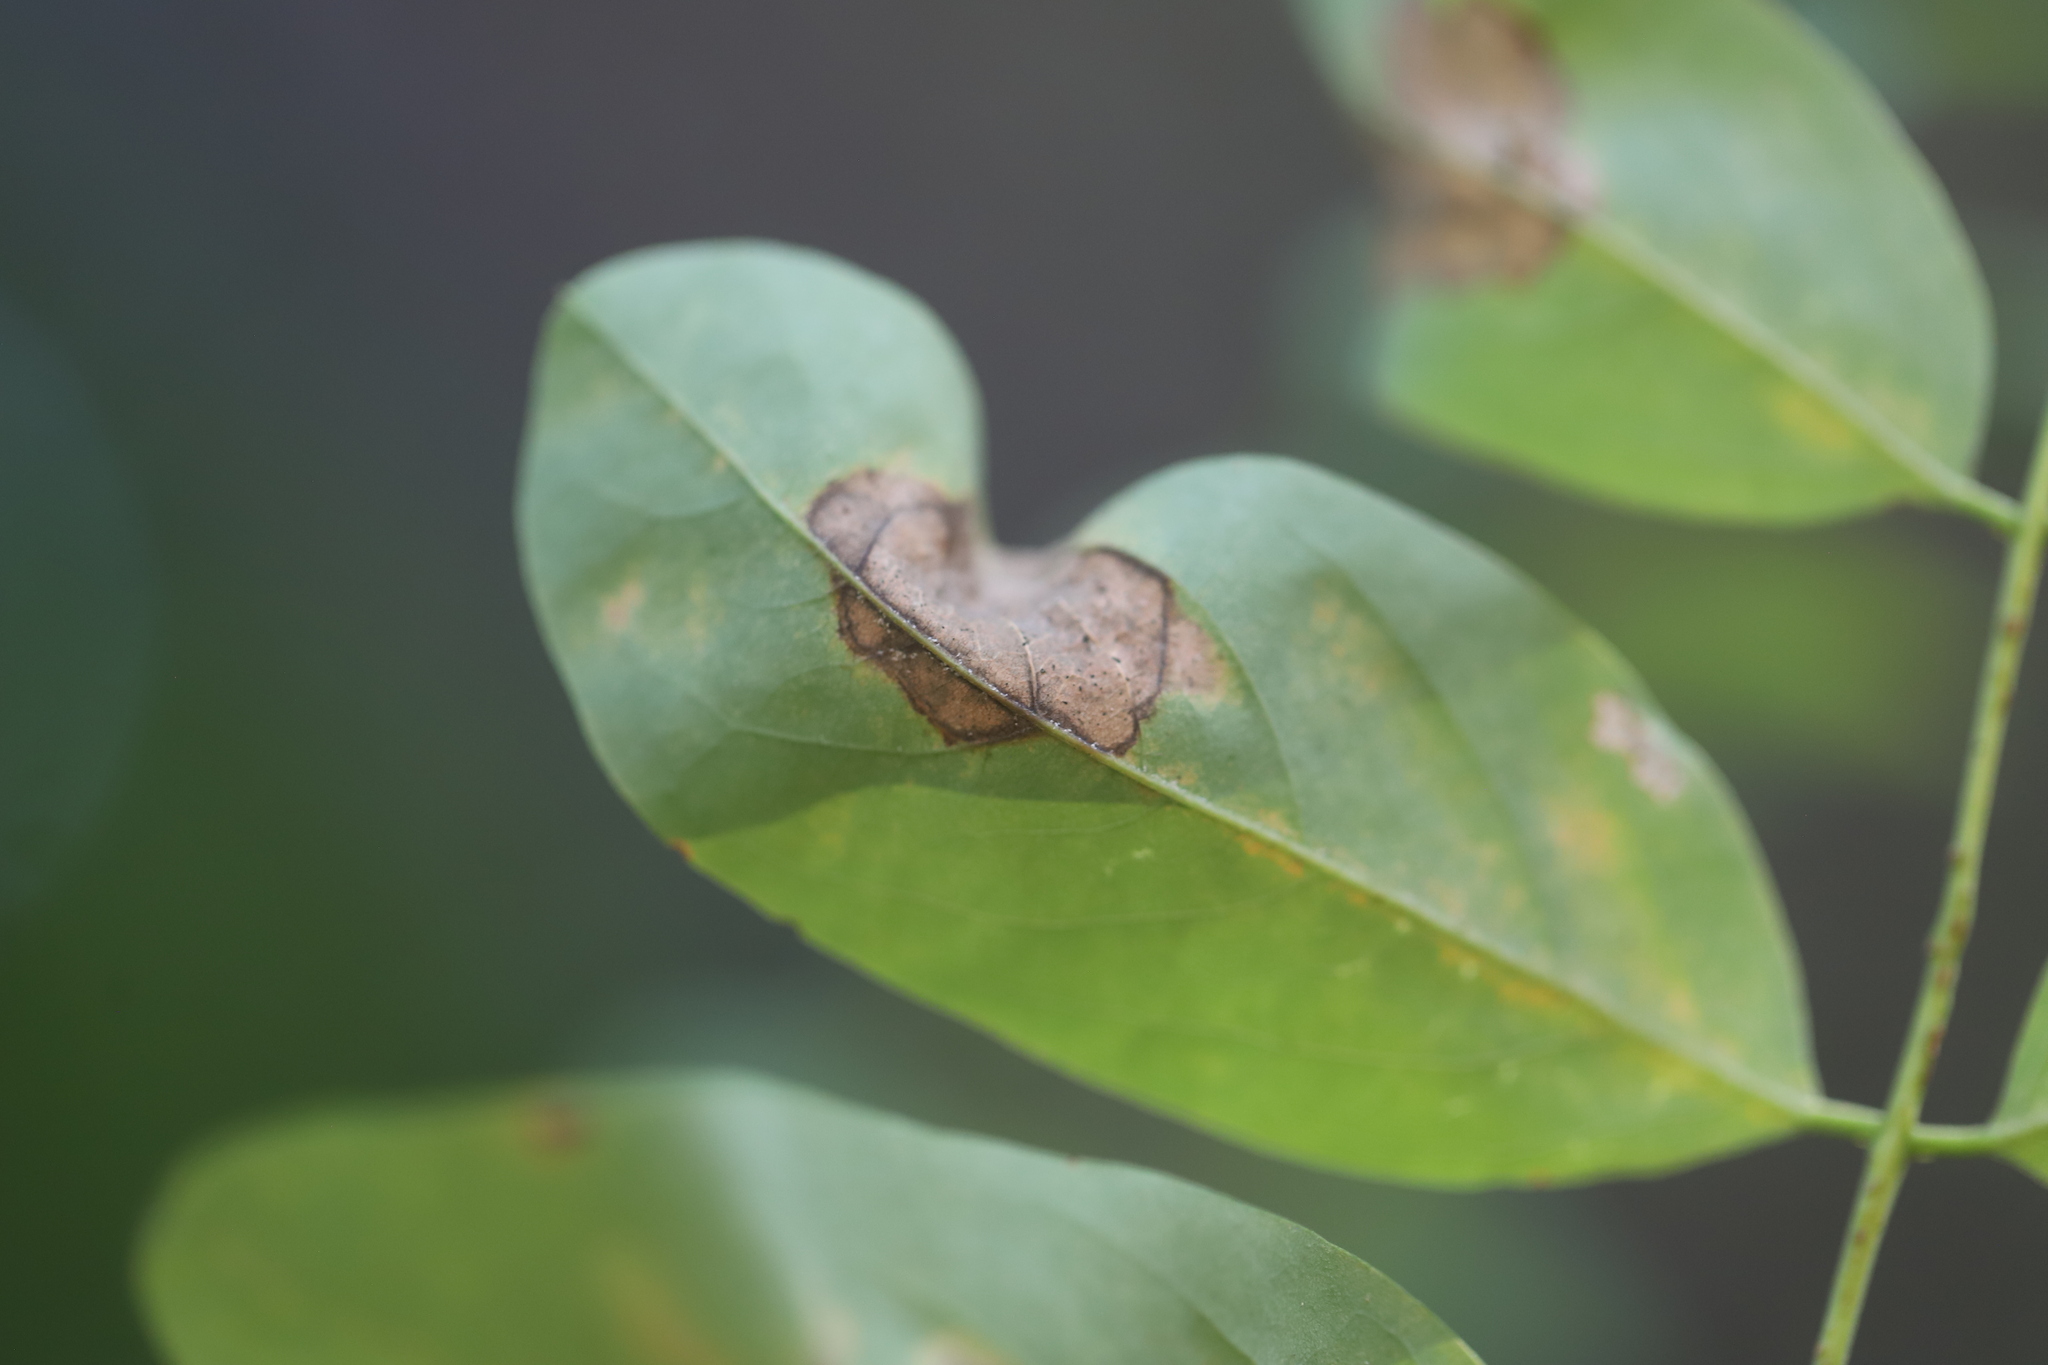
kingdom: Animalia
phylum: Arthropoda
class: Insecta
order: Lepidoptera
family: Gracillariidae
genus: Parectopa
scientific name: Parectopa robiniella
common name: Locust digitate leafminer
